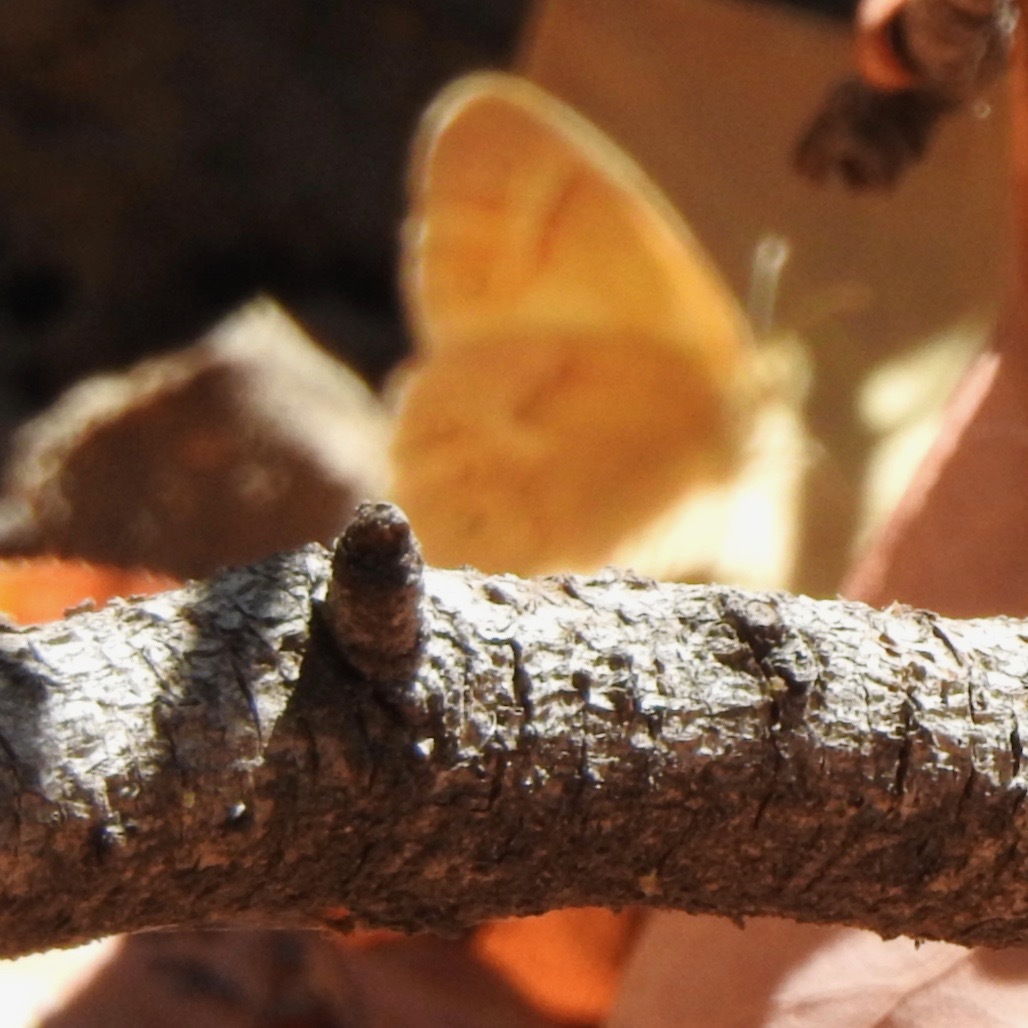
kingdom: Animalia
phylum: Arthropoda
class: Insecta
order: Lepidoptera
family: Nymphalidae
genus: Coenonympha
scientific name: Coenonympha california
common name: Common ringlet
